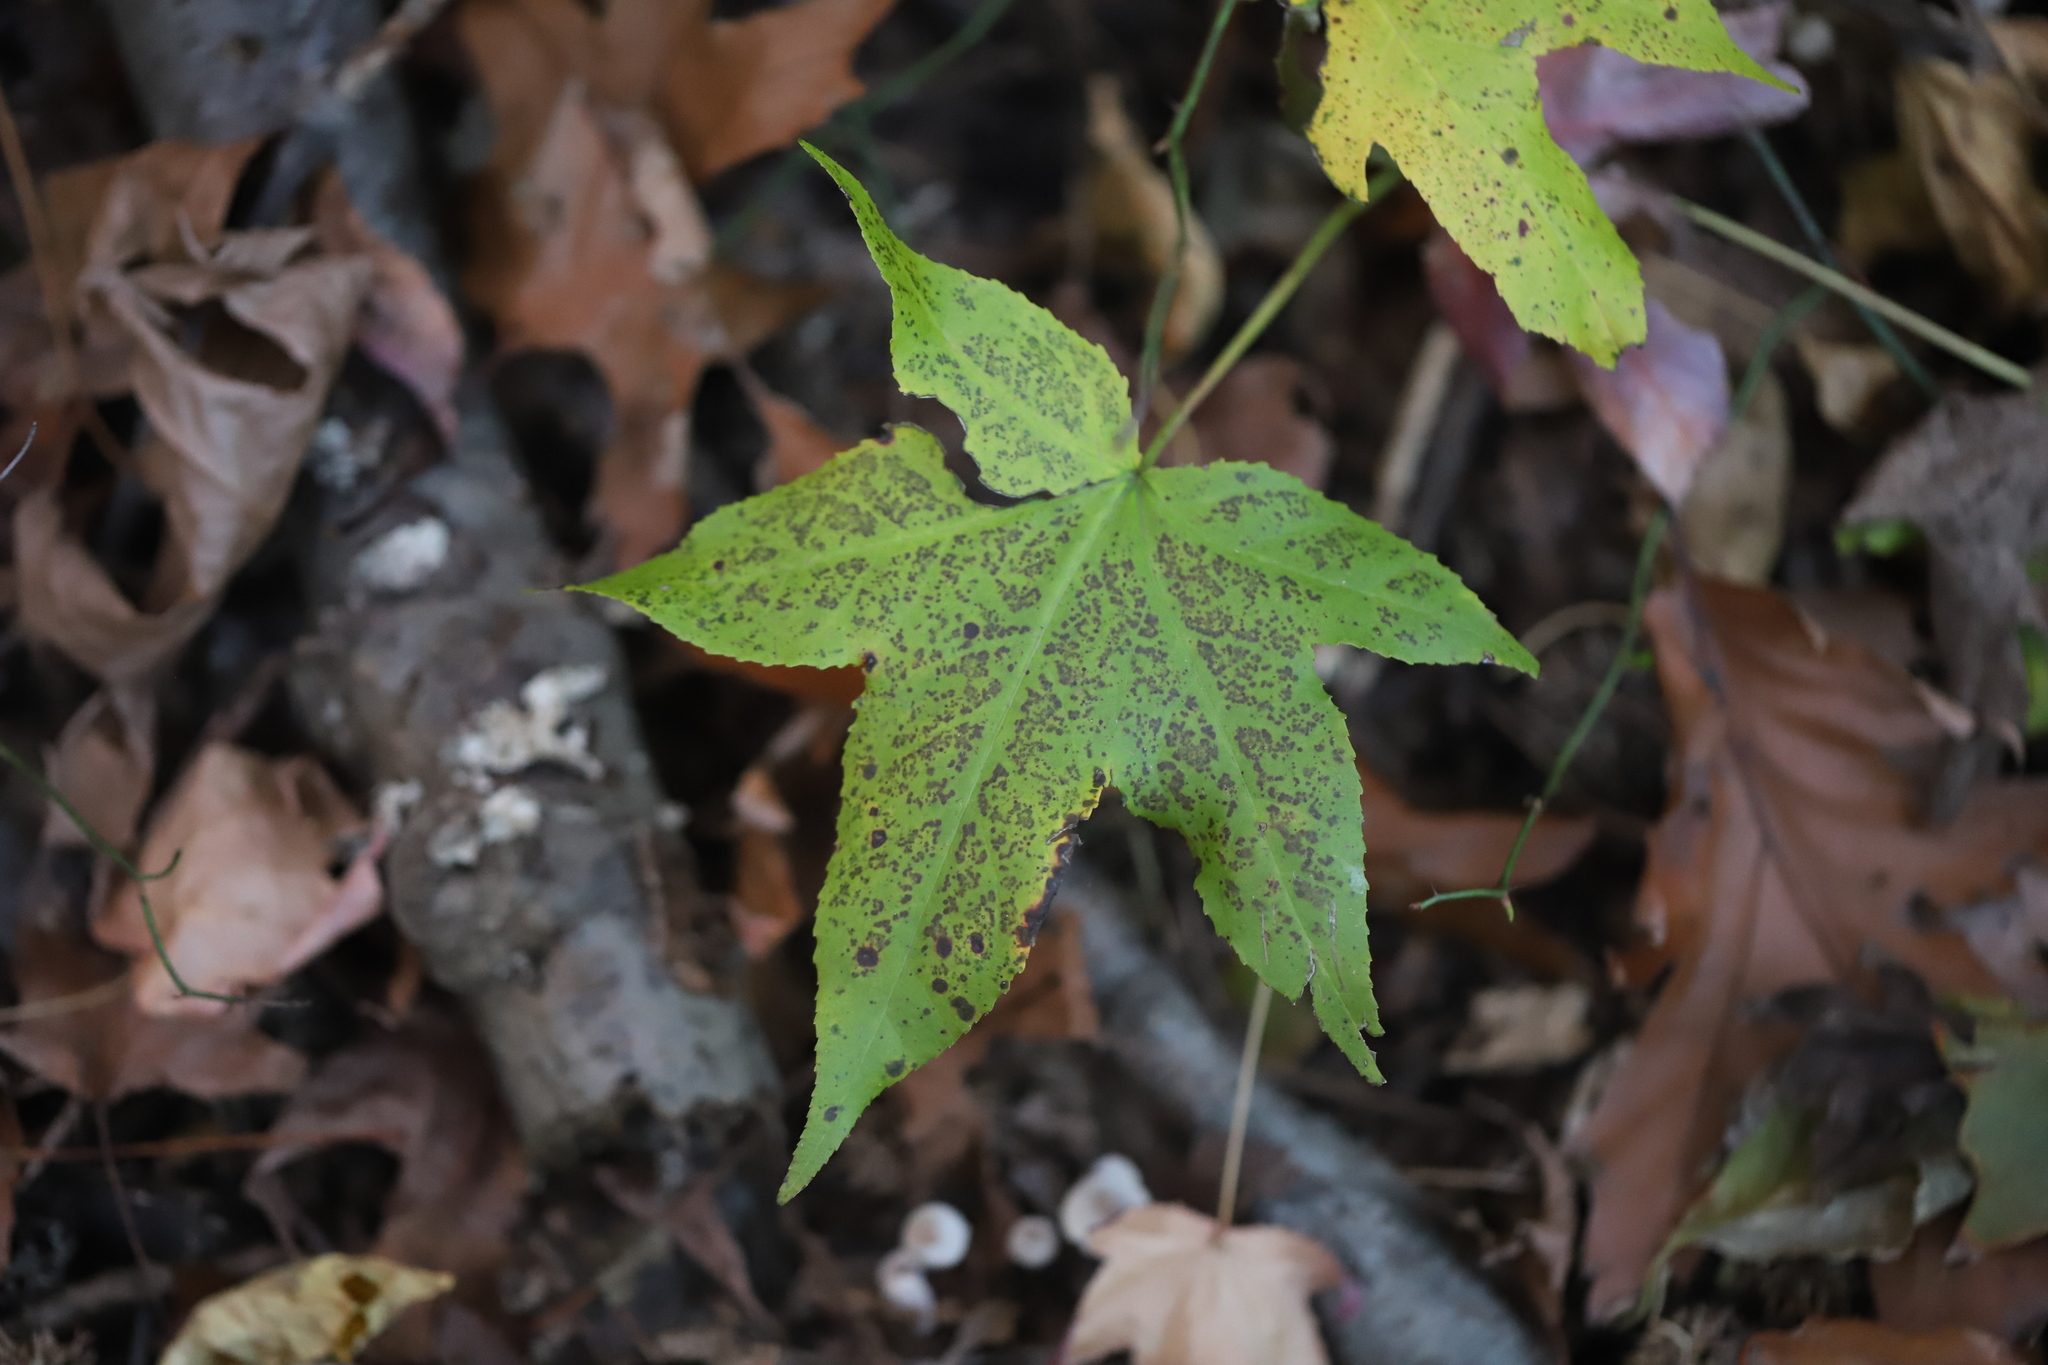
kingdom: Plantae
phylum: Tracheophyta
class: Magnoliopsida
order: Saxifragales
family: Altingiaceae
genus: Liquidambar
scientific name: Liquidambar styraciflua
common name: Sweet gum
